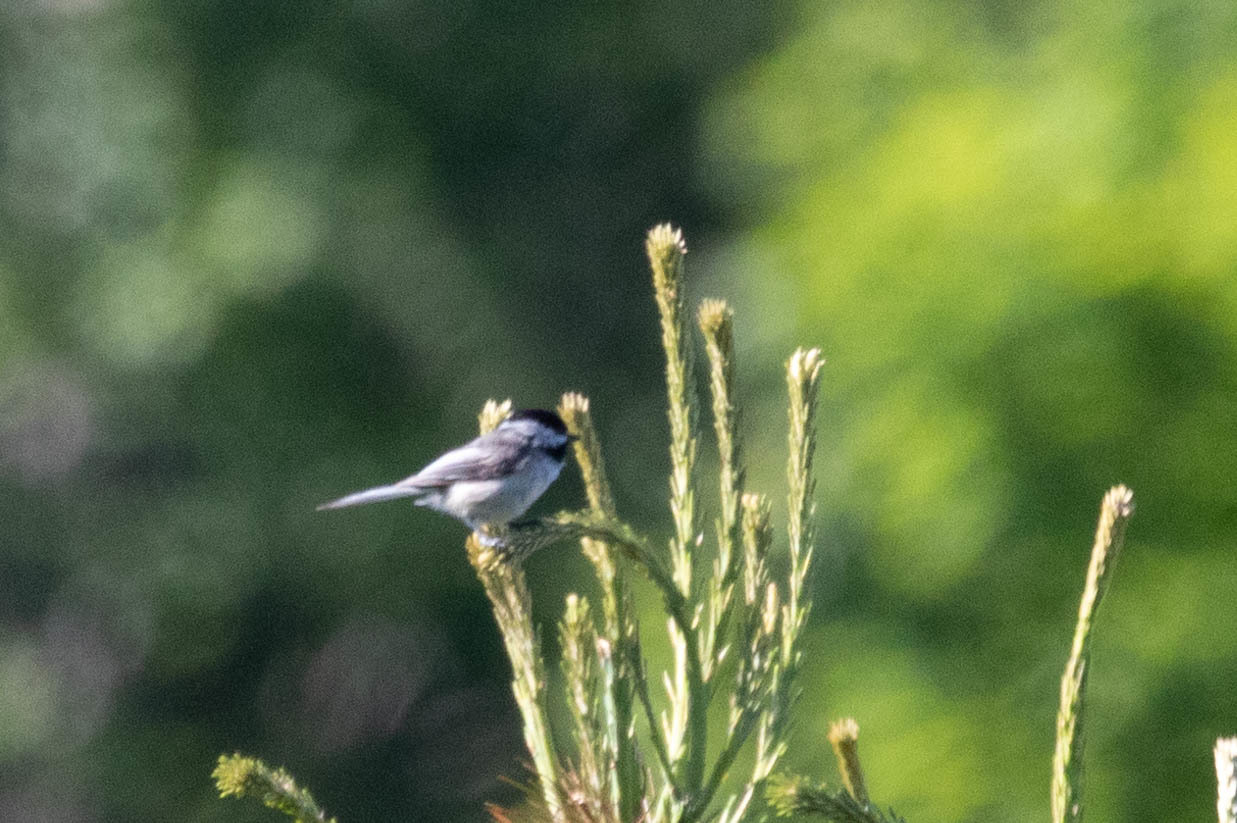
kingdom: Animalia
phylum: Chordata
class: Aves
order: Passeriformes
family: Paridae
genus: Poecile
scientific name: Poecile atricapillus
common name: Black-capped chickadee
